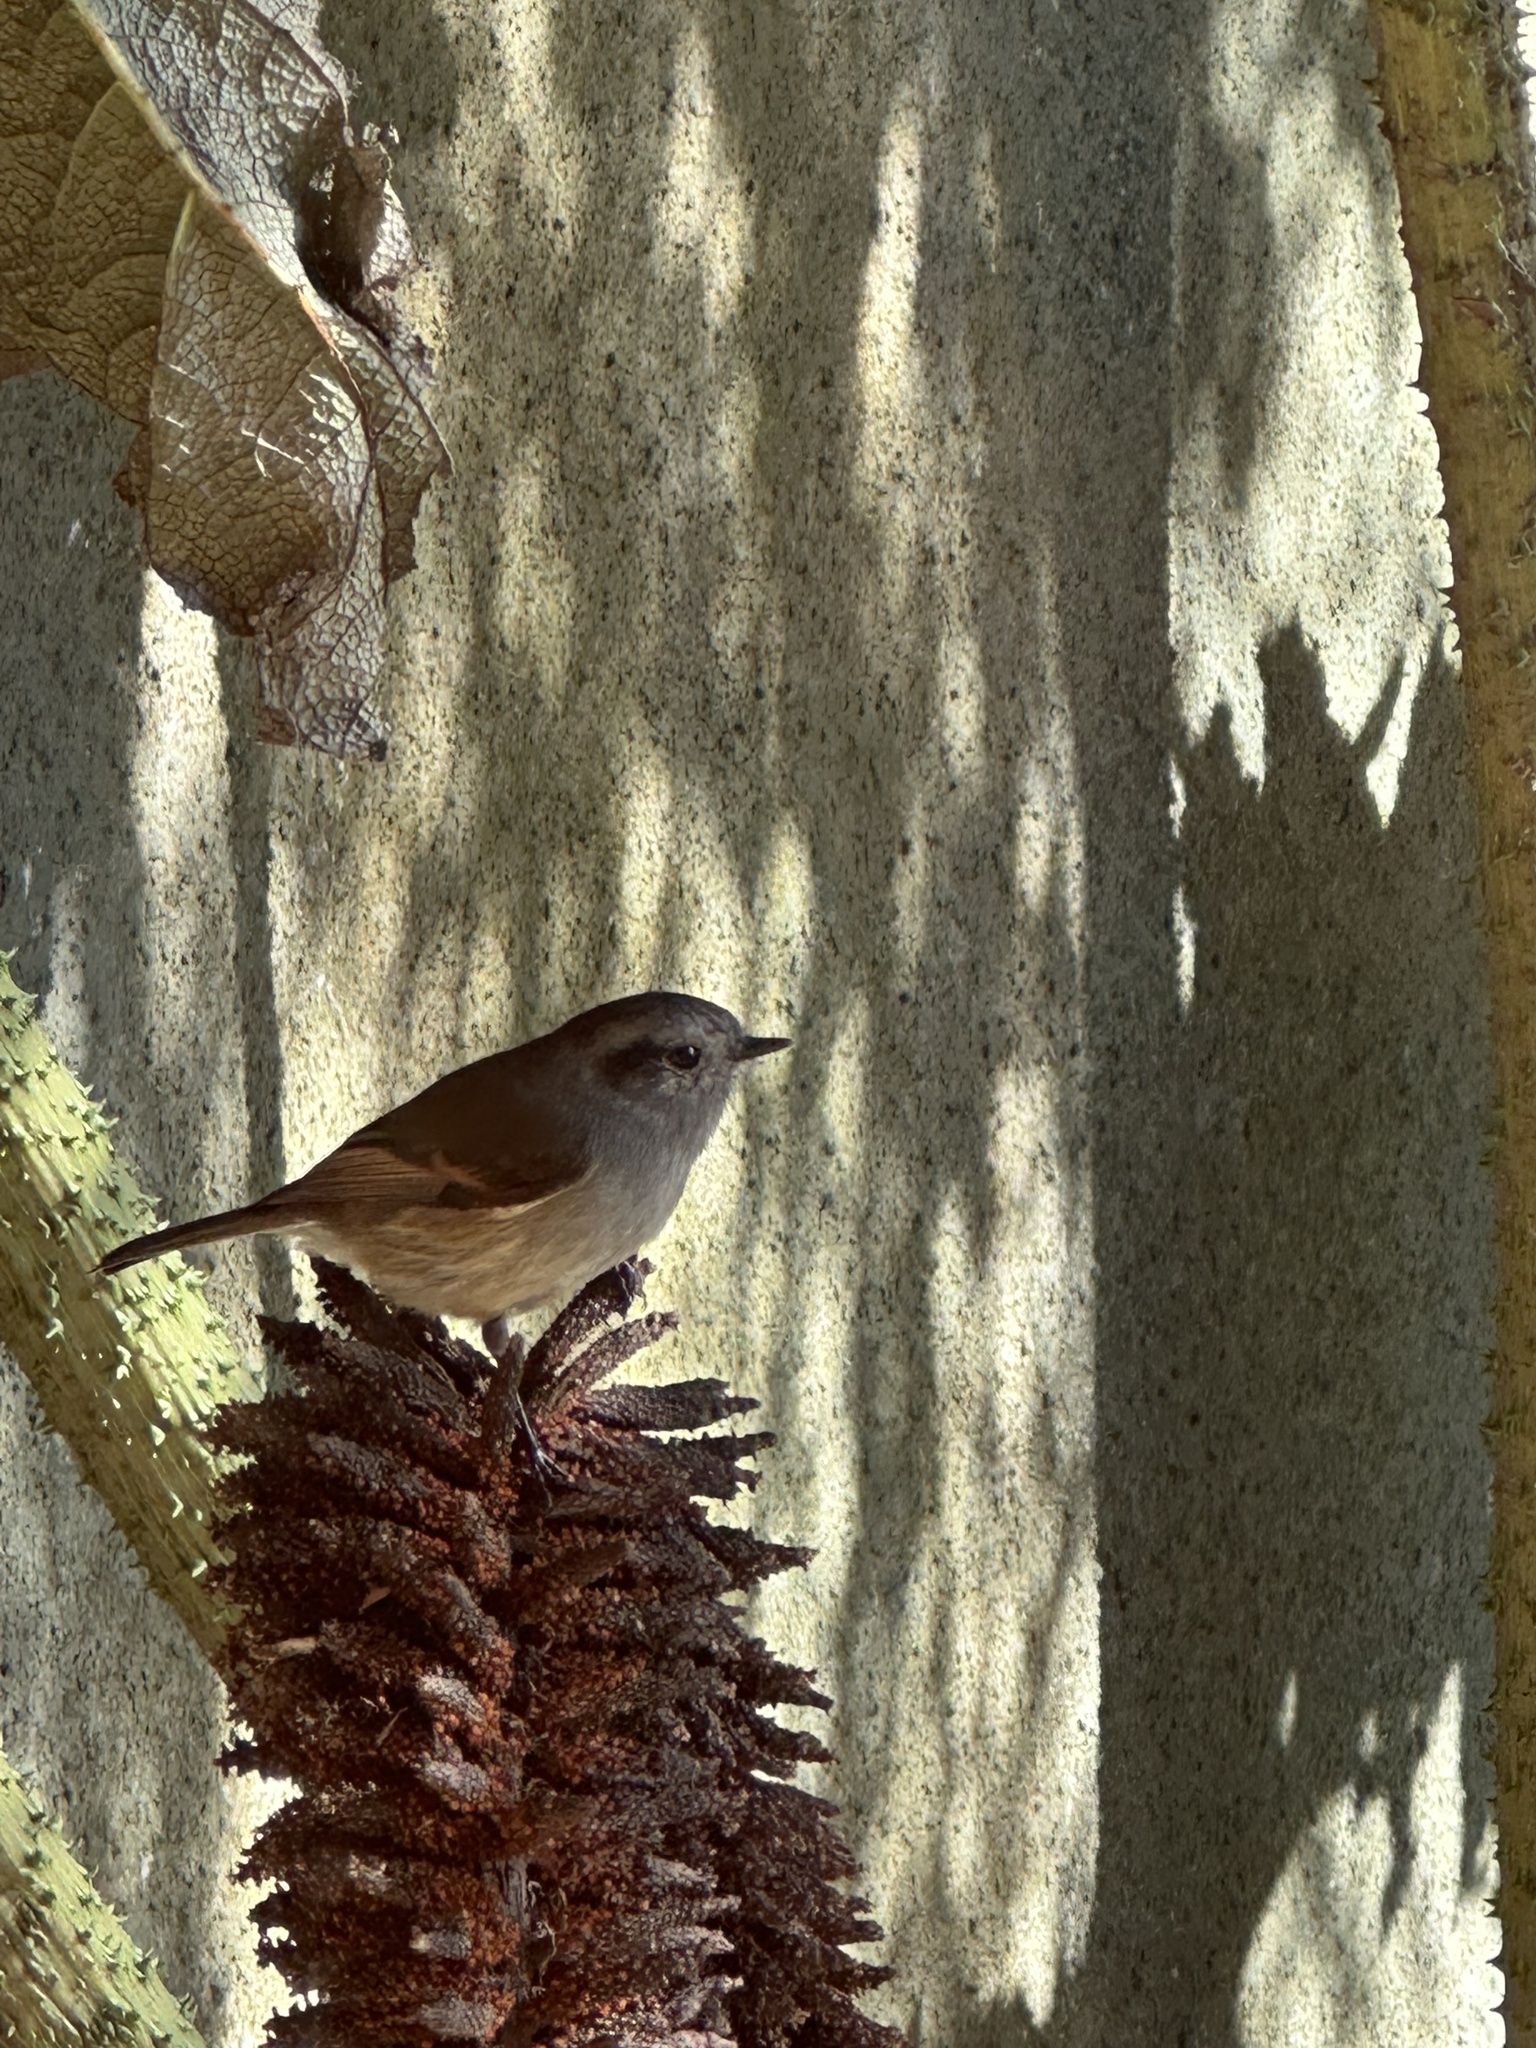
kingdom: Animalia
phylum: Chordata
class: Aves
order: Passeriformes
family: Tyrannidae
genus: Colorhamphus
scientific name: Colorhamphus parvirostris
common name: Patagonian tyrant
